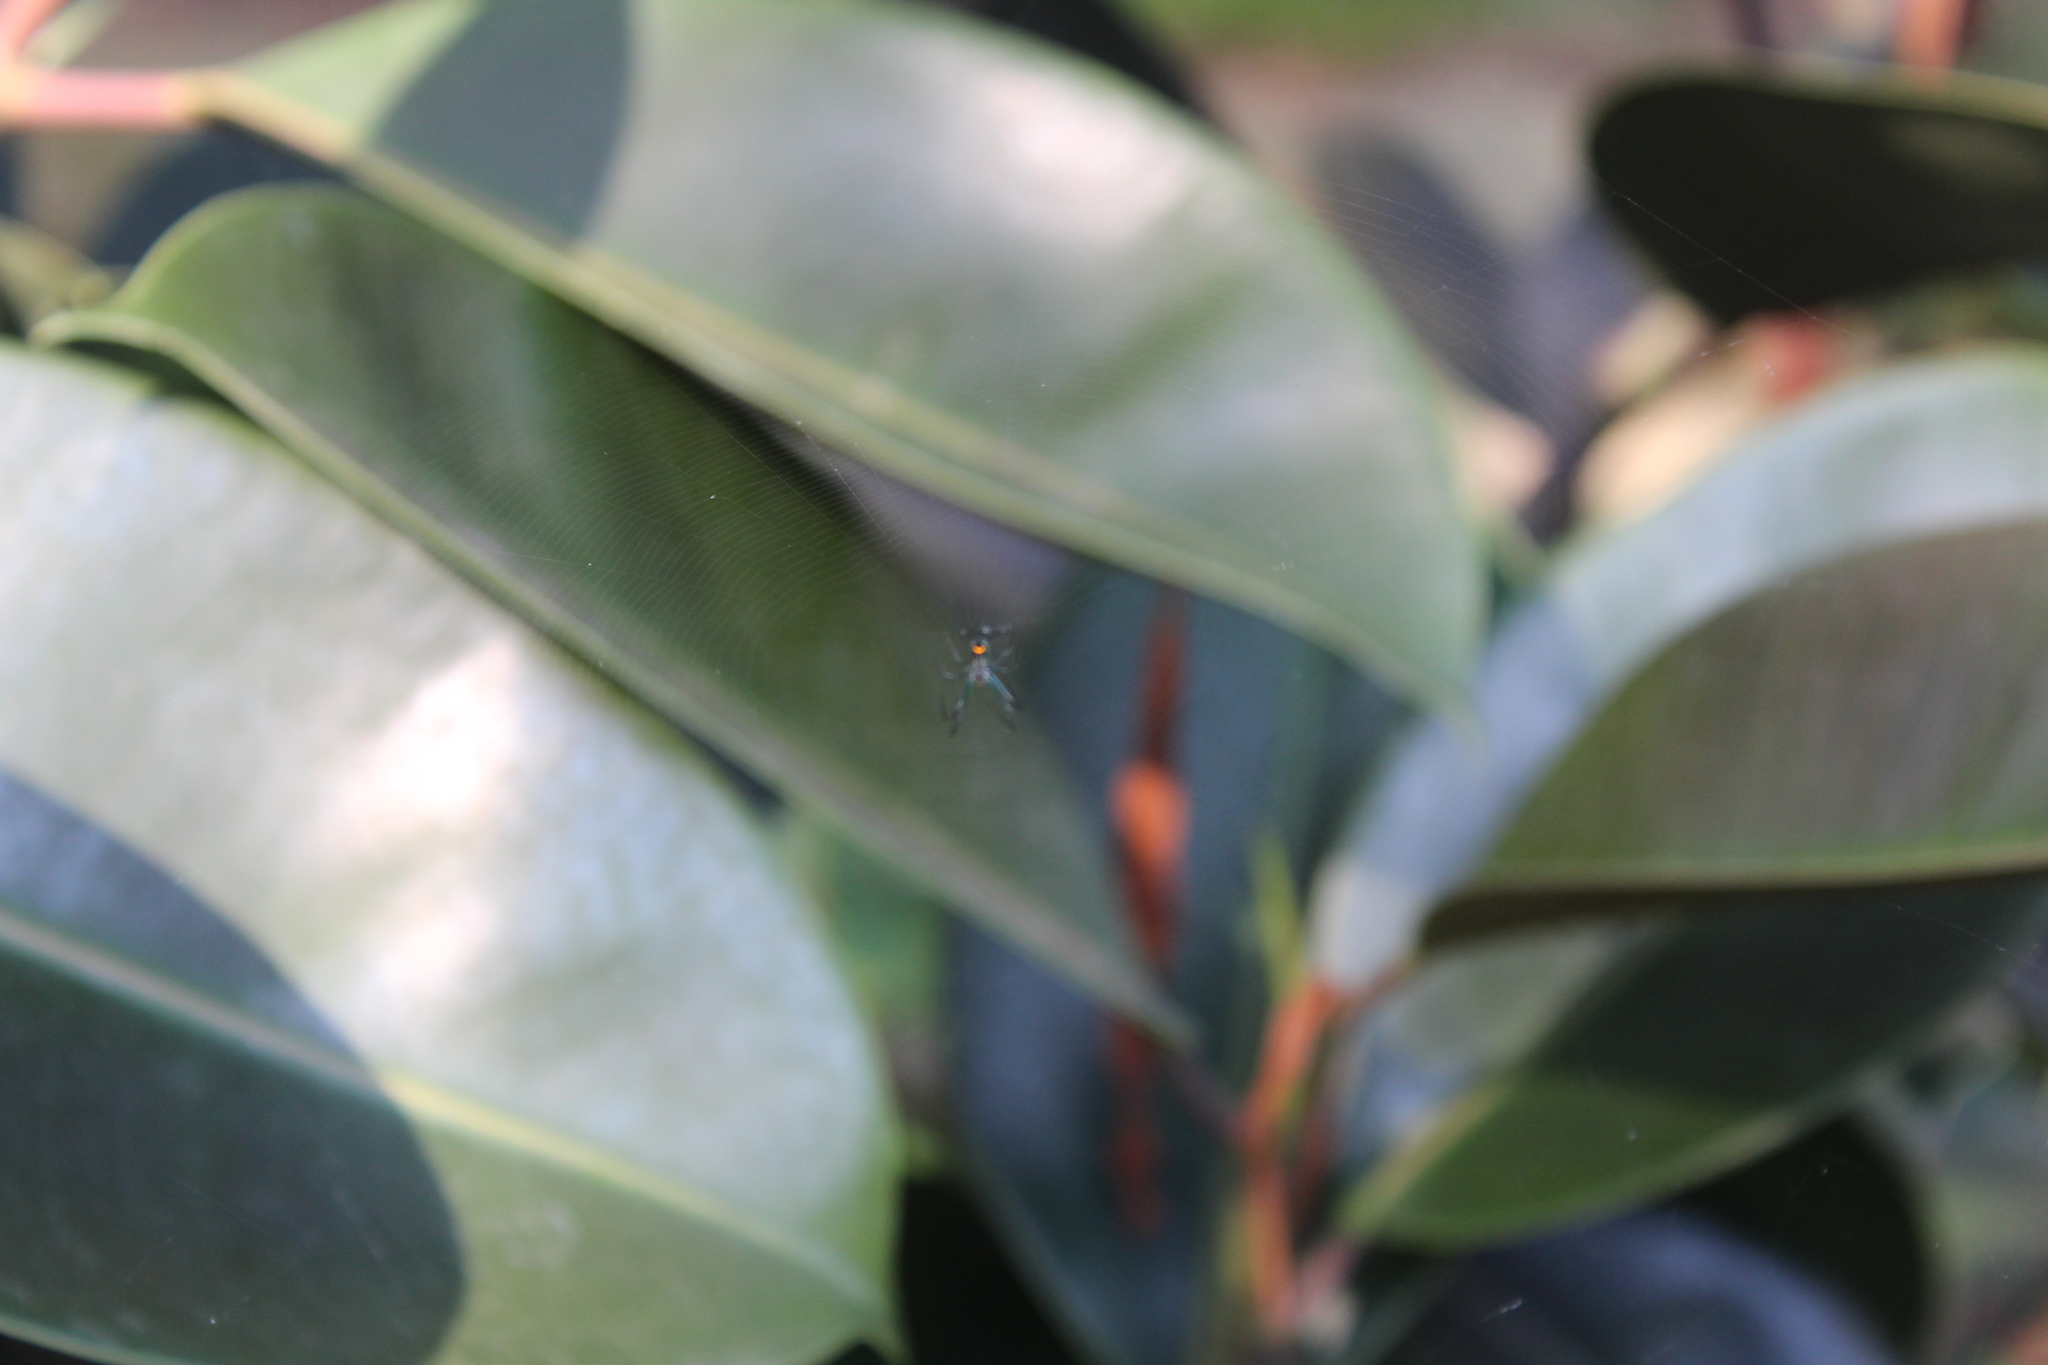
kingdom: Animalia
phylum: Arthropoda
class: Arachnida
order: Araneae
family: Tetragnathidae
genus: Leucauge
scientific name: Leucauge venusta
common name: Longjawed orb weavers
